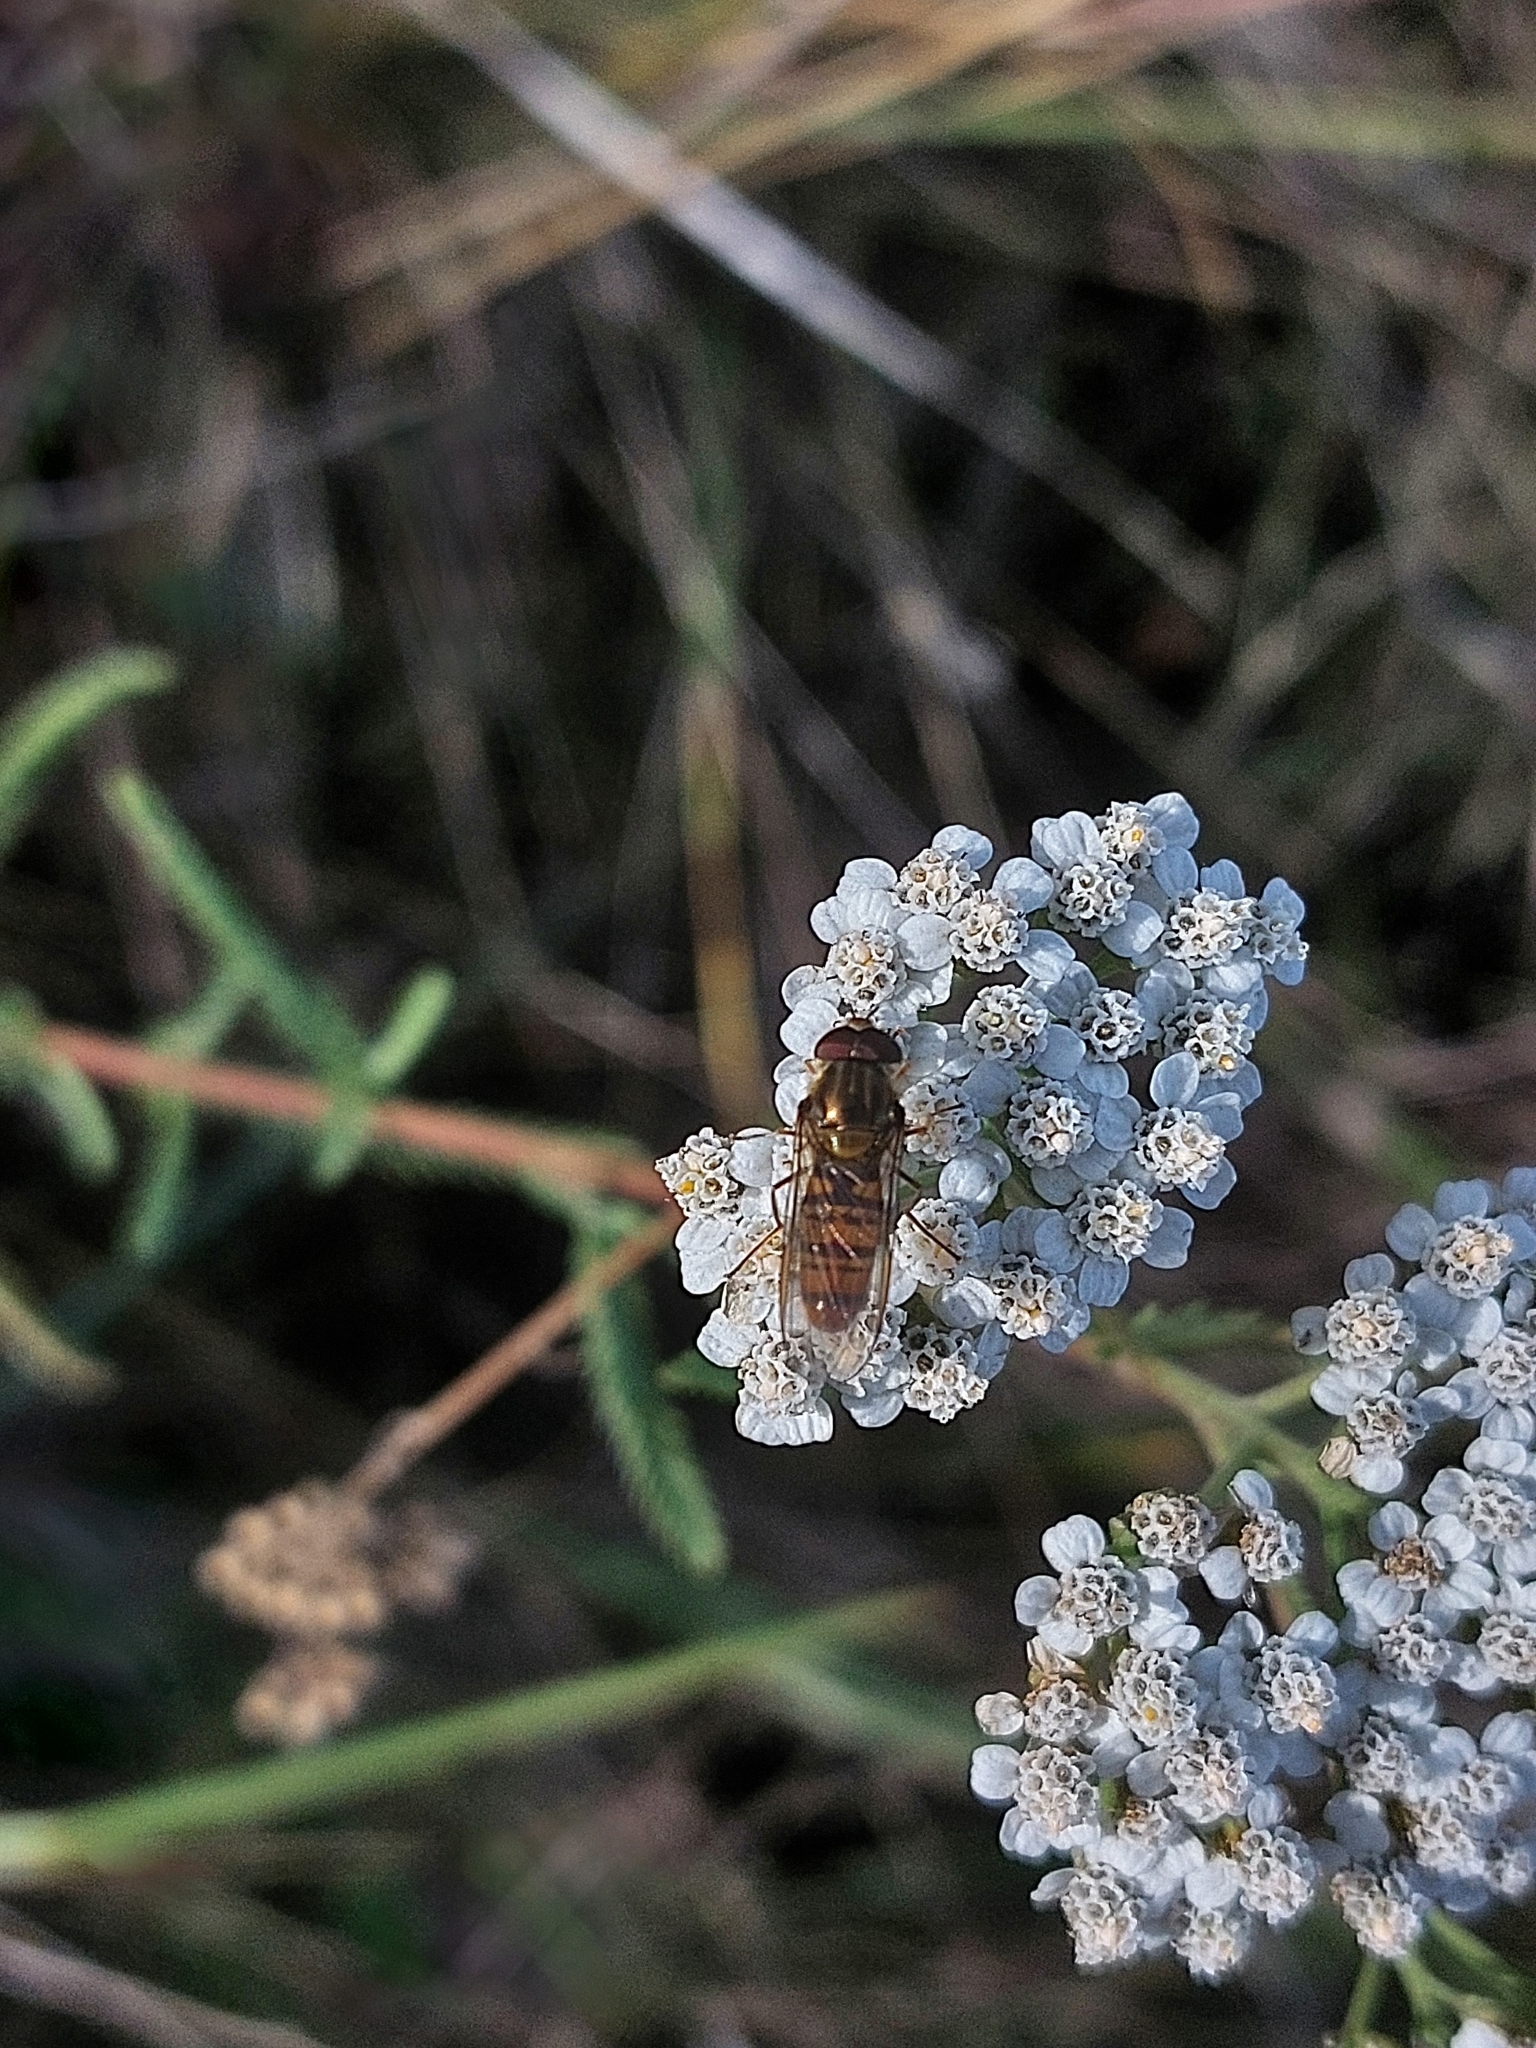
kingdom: Animalia
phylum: Arthropoda
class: Insecta
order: Diptera
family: Syrphidae
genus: Episyrphus
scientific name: Episyrphus balteatus
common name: Marmalade hoverfly
